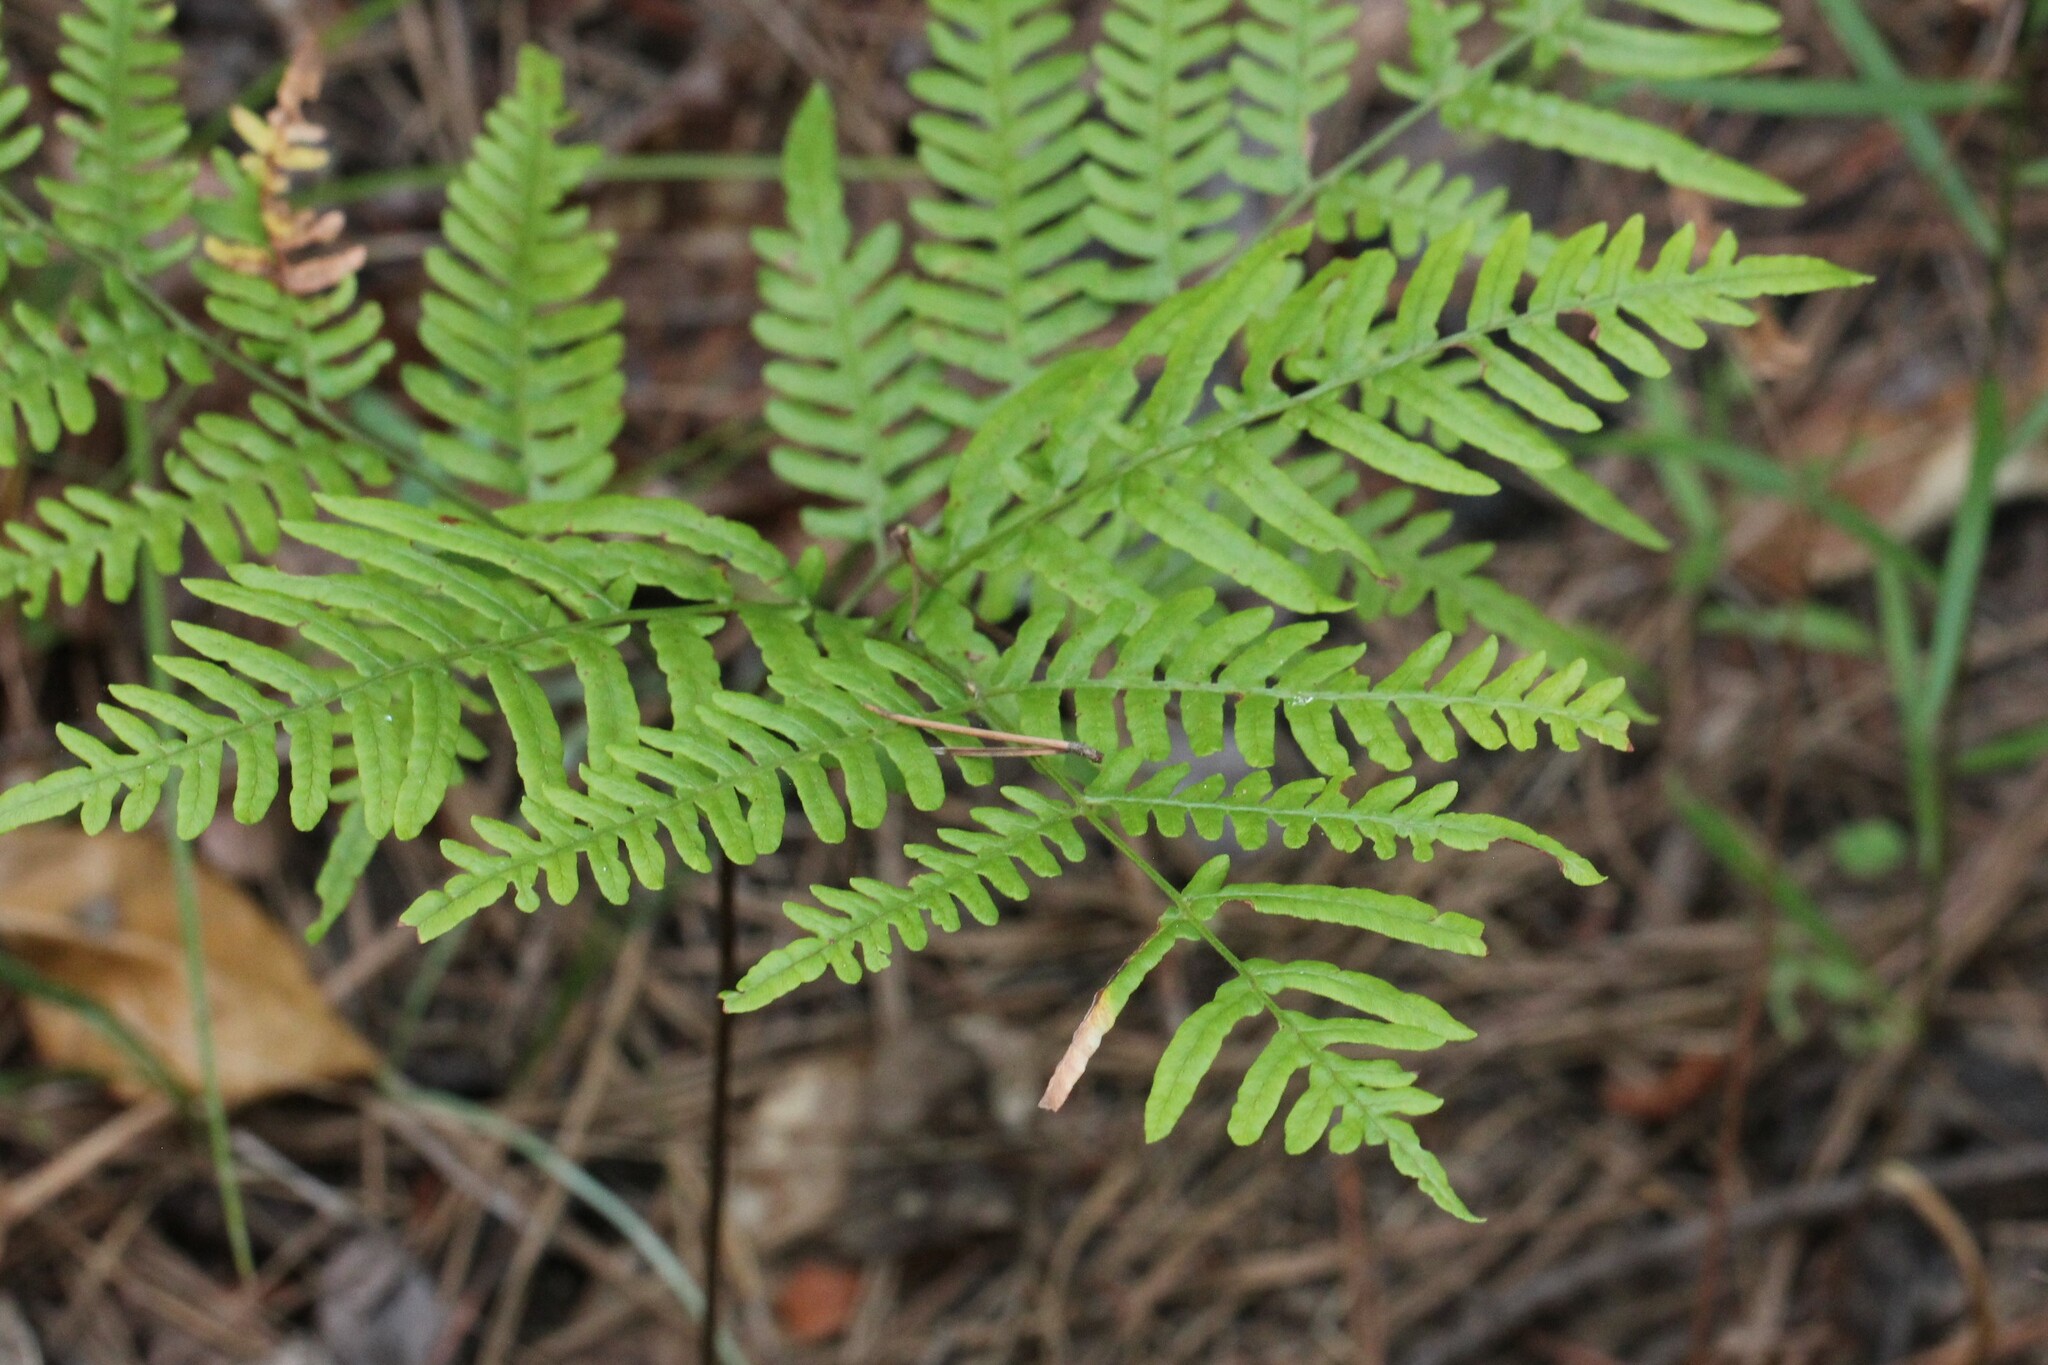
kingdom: Plantae
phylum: Tracheophyta
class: Polypodiopsida
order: Polypodiales
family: Dennstaedtiaceae
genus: Pteridium
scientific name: Pteridium aquilinum
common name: Bracken
